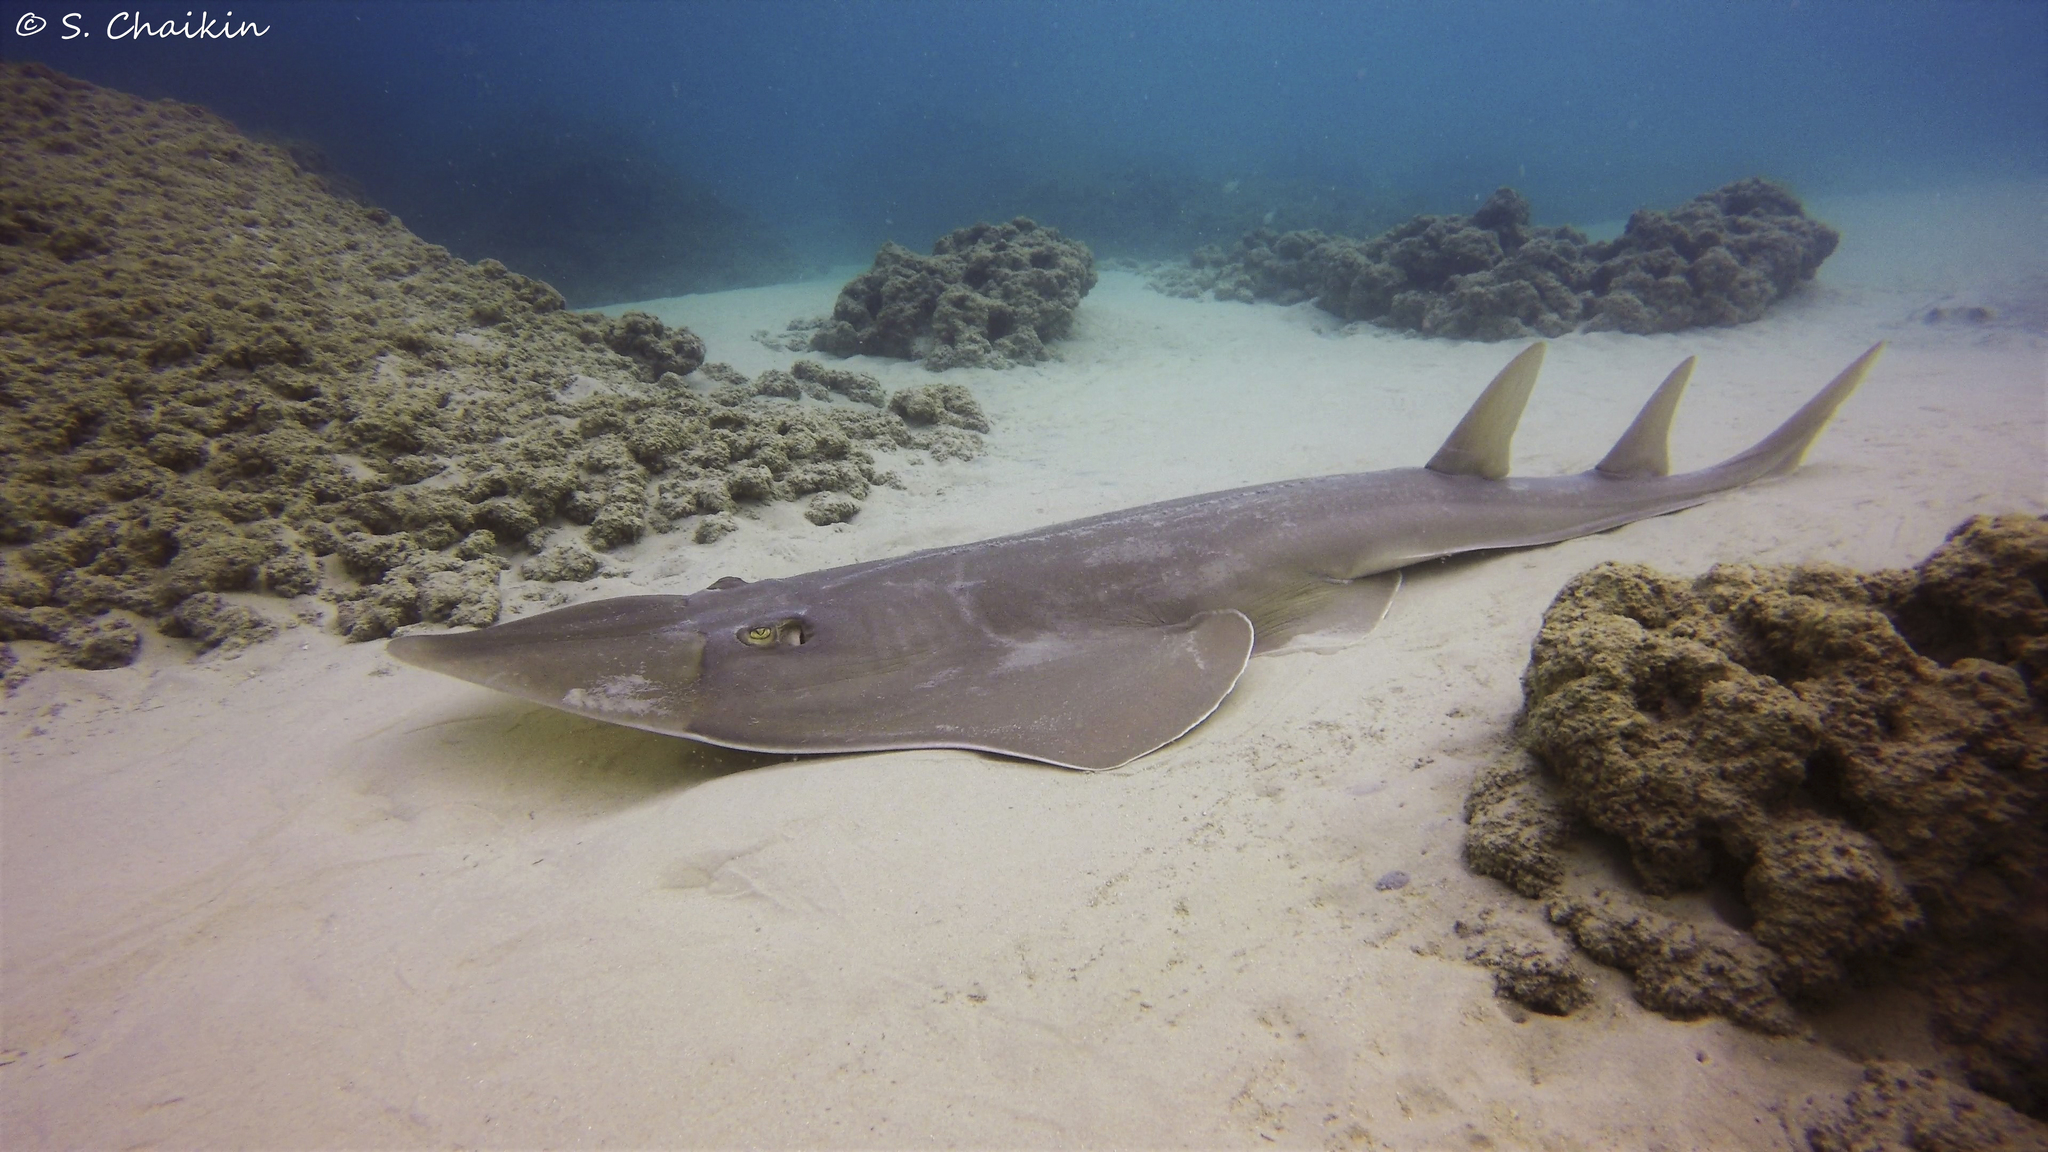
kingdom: Animalia
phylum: Chordata
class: Elasmobranchii
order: Rhinopristiformes
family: Glaucostegidae
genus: Glaucostegus
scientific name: Glaucostegus cemiculus
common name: Blackchin guitarfish
